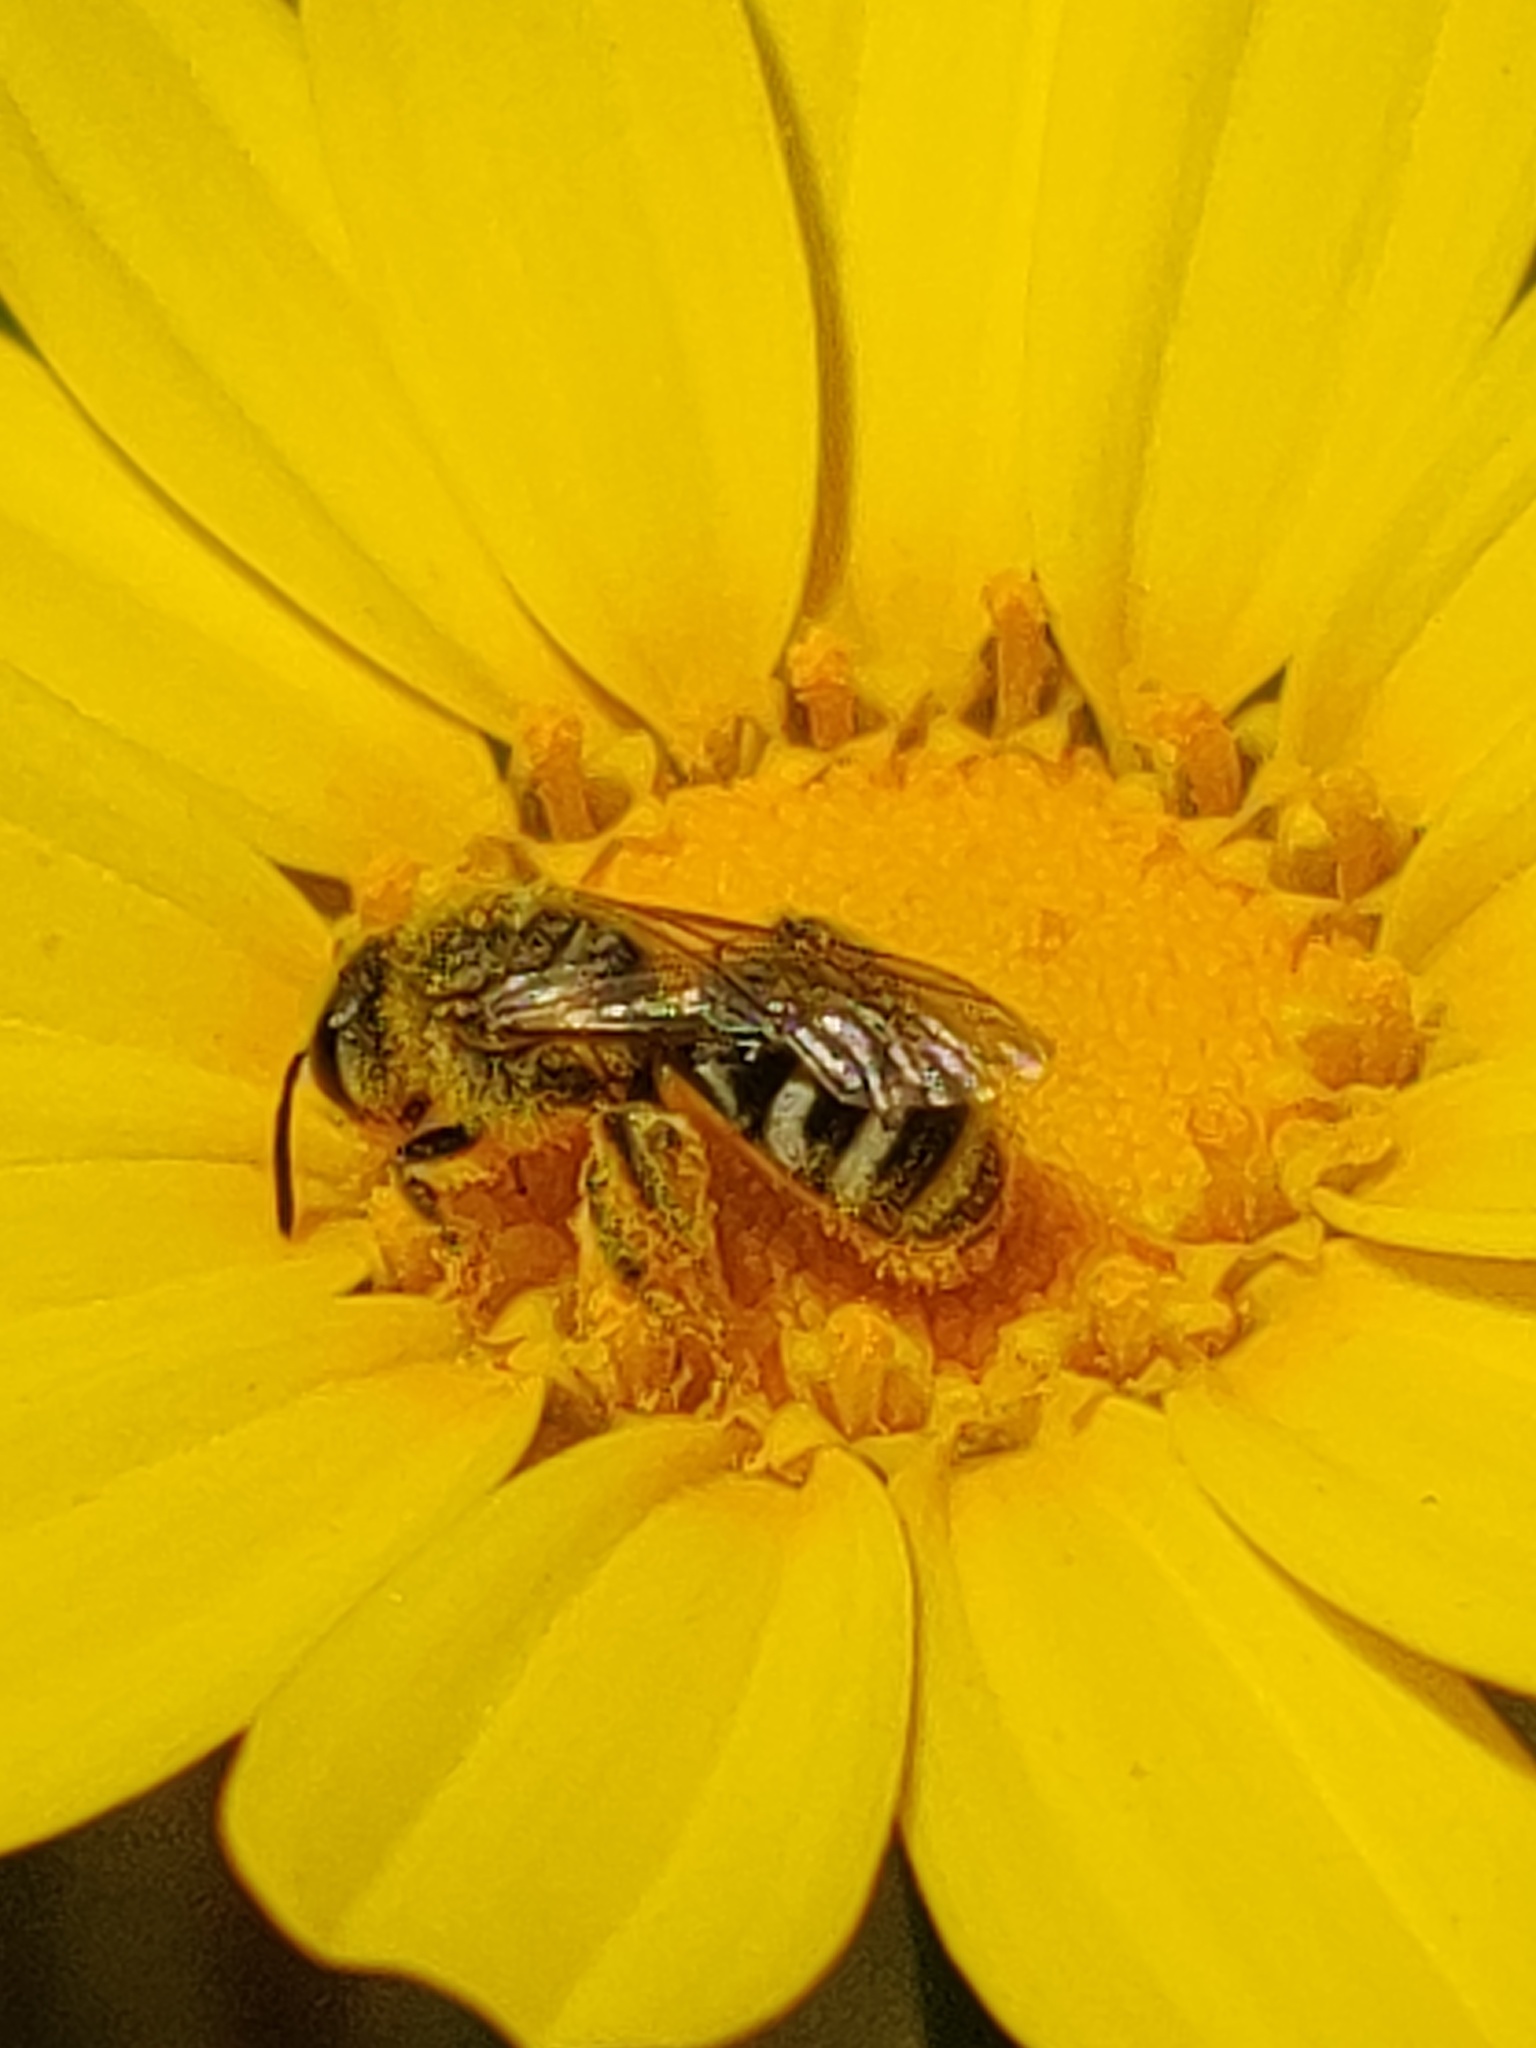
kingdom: Animalia
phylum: Arthropoda
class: Insecta
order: Hymenoptera
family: Halictidae
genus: Lasioglossum
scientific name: Lasioglossum sisymbrii
